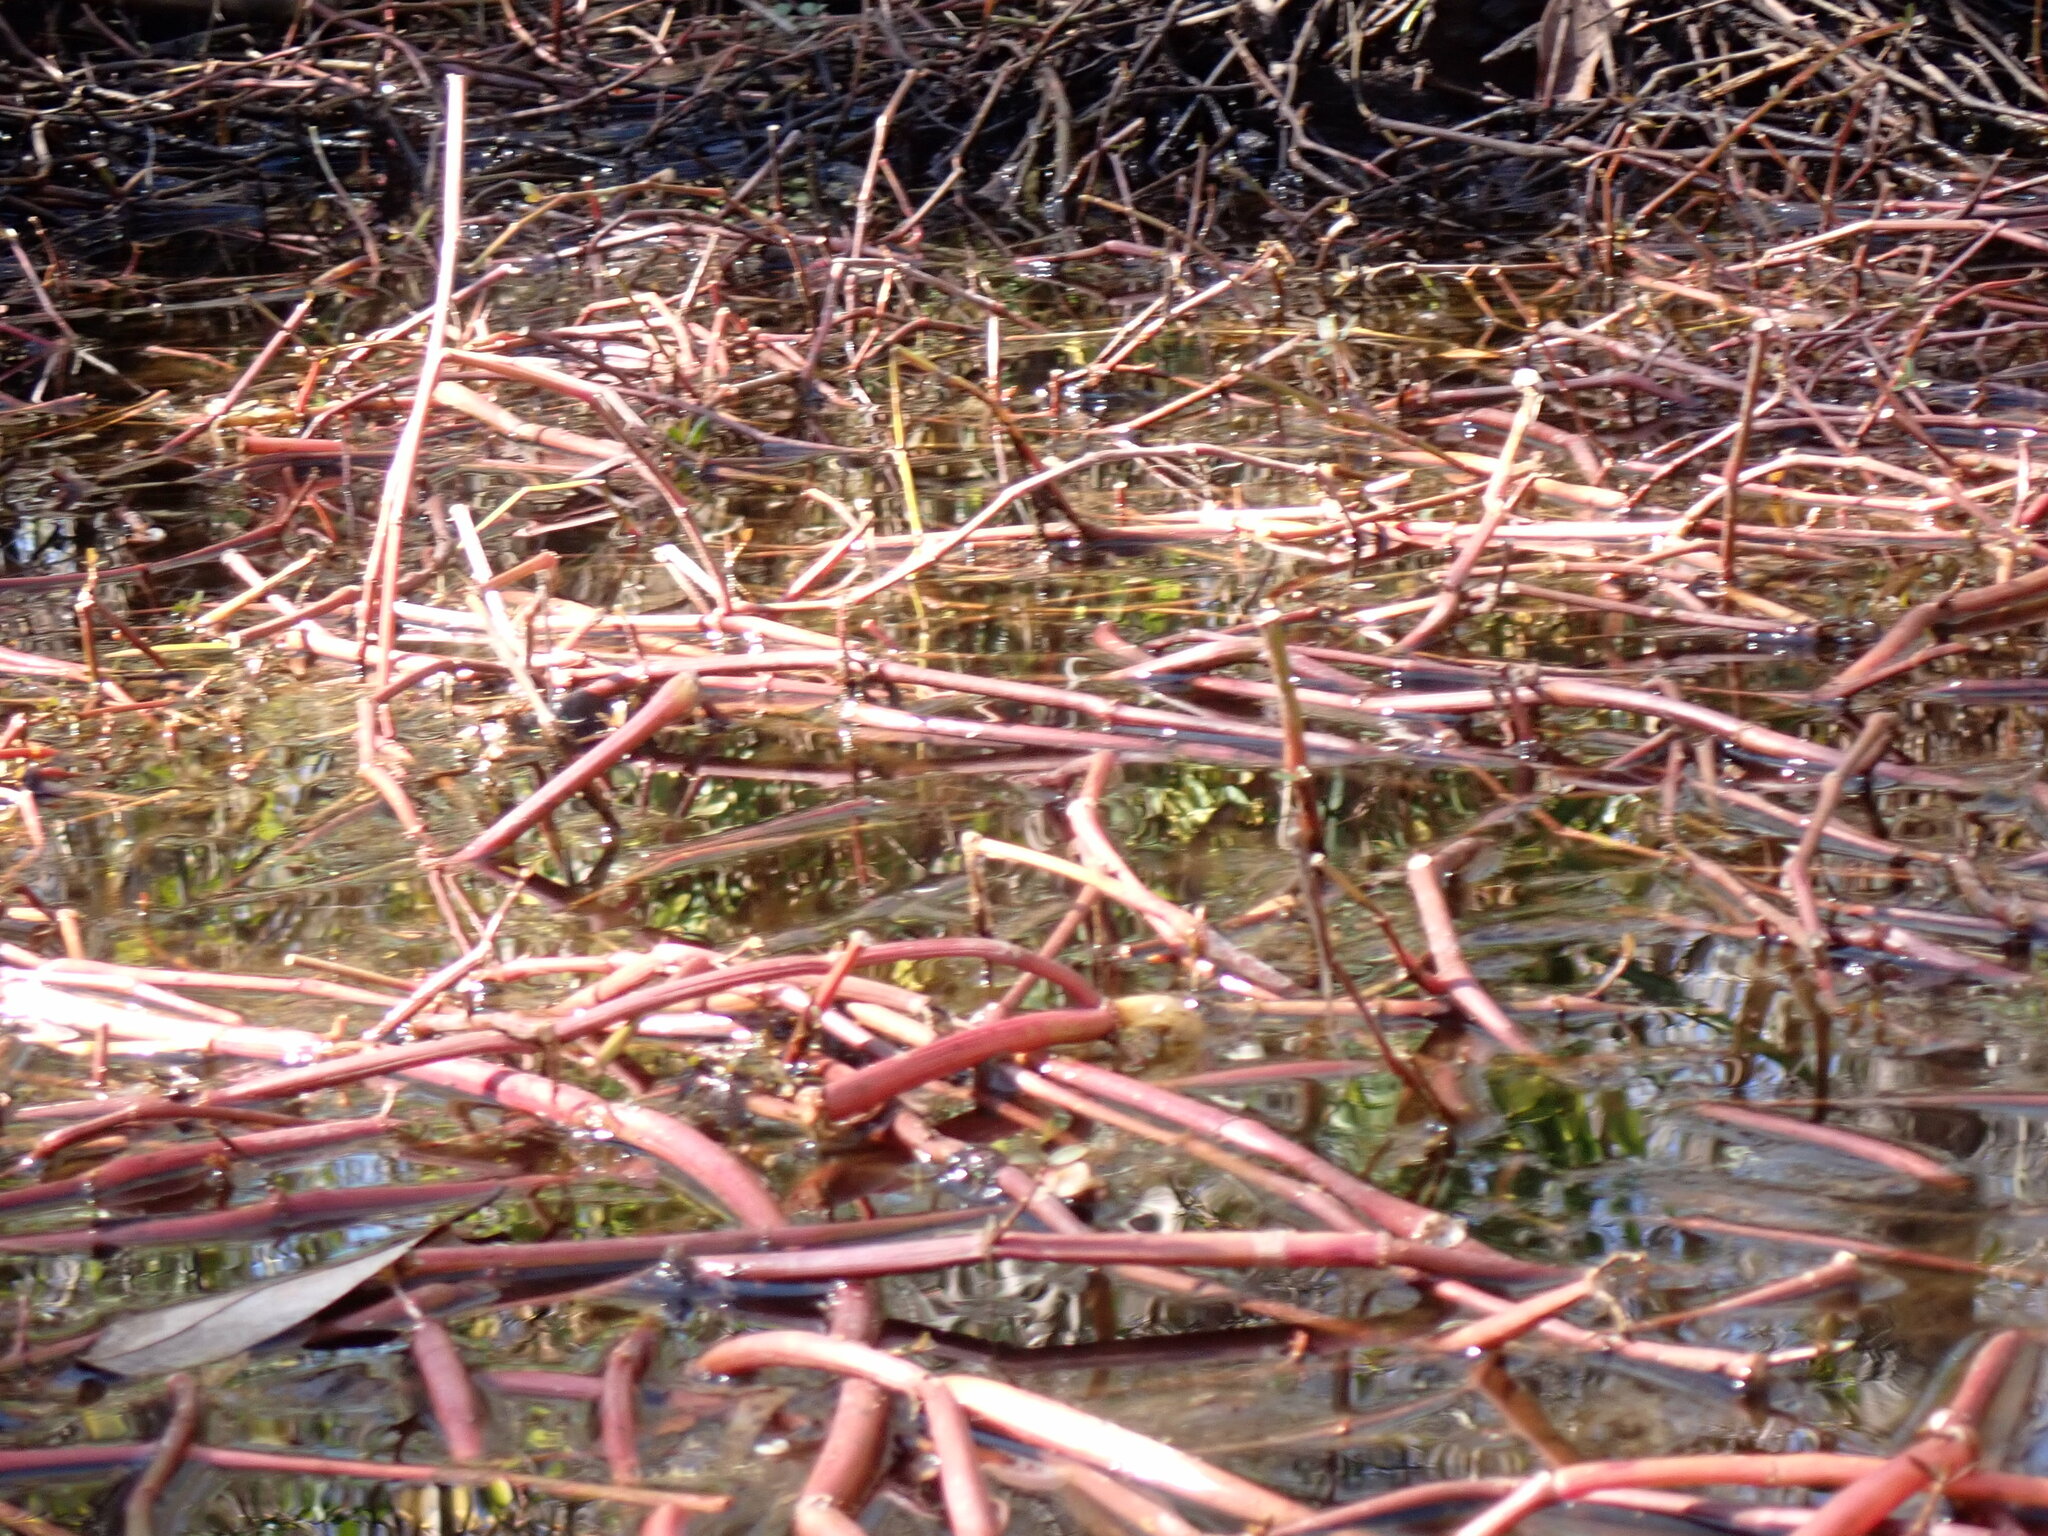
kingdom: Plantae
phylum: Tracheophyta
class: Magnoliopsida
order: Caryophyllales
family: Amaranthaceae
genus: Alternanthera
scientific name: Alternanthera philoxeroides
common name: Alligatorweed
